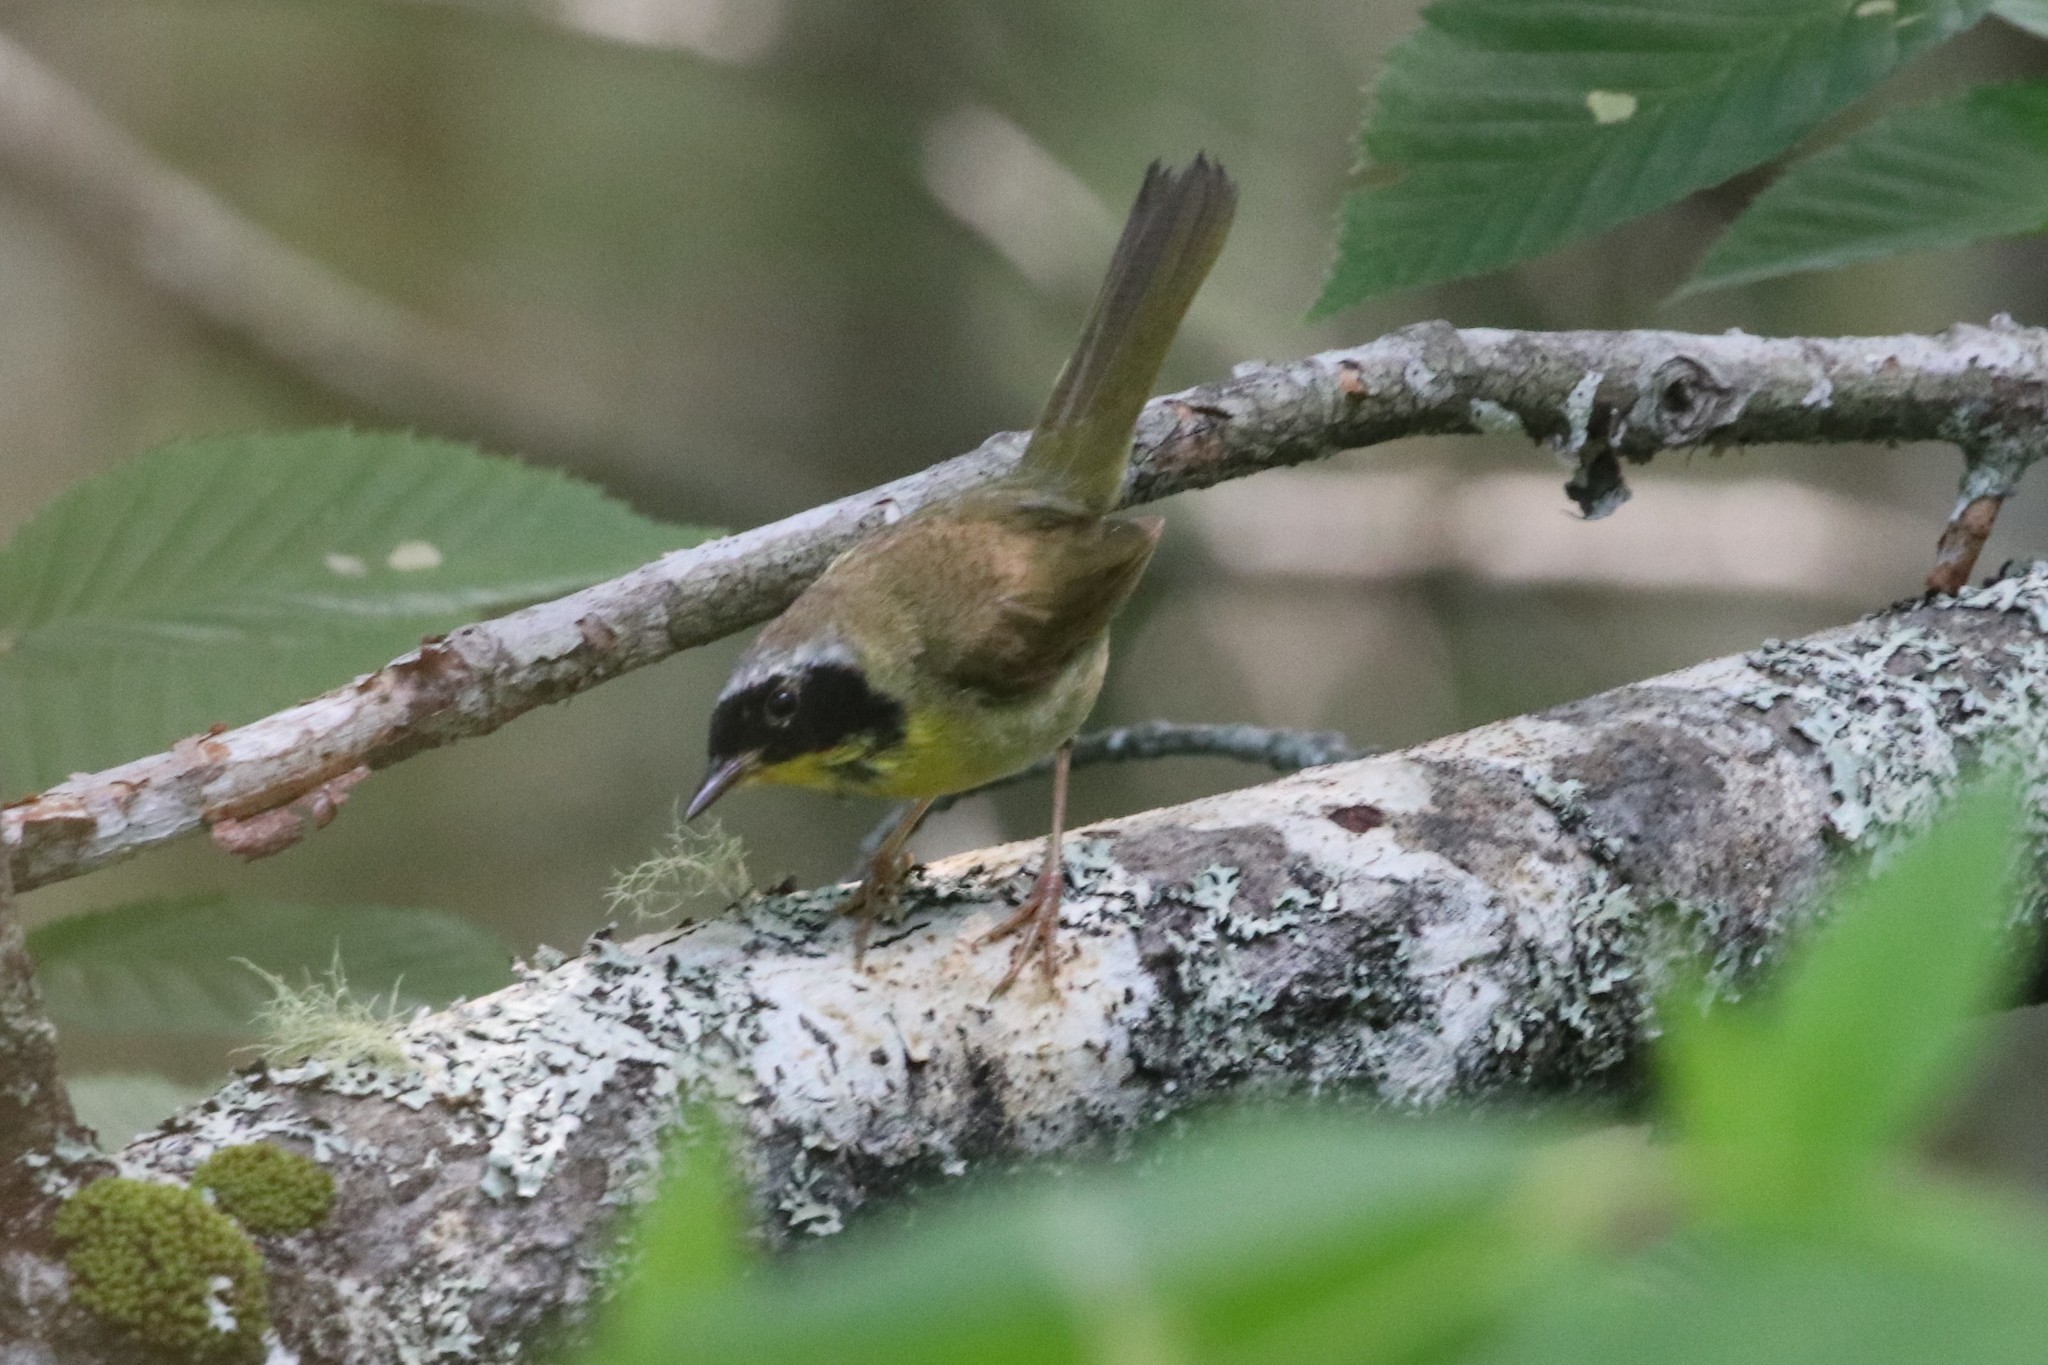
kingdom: Animalia
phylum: Chordata
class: Aves
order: Passeriformes
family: Parulidae
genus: Geothlypis
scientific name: Geothlypis trichas
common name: Common yellowthroat
